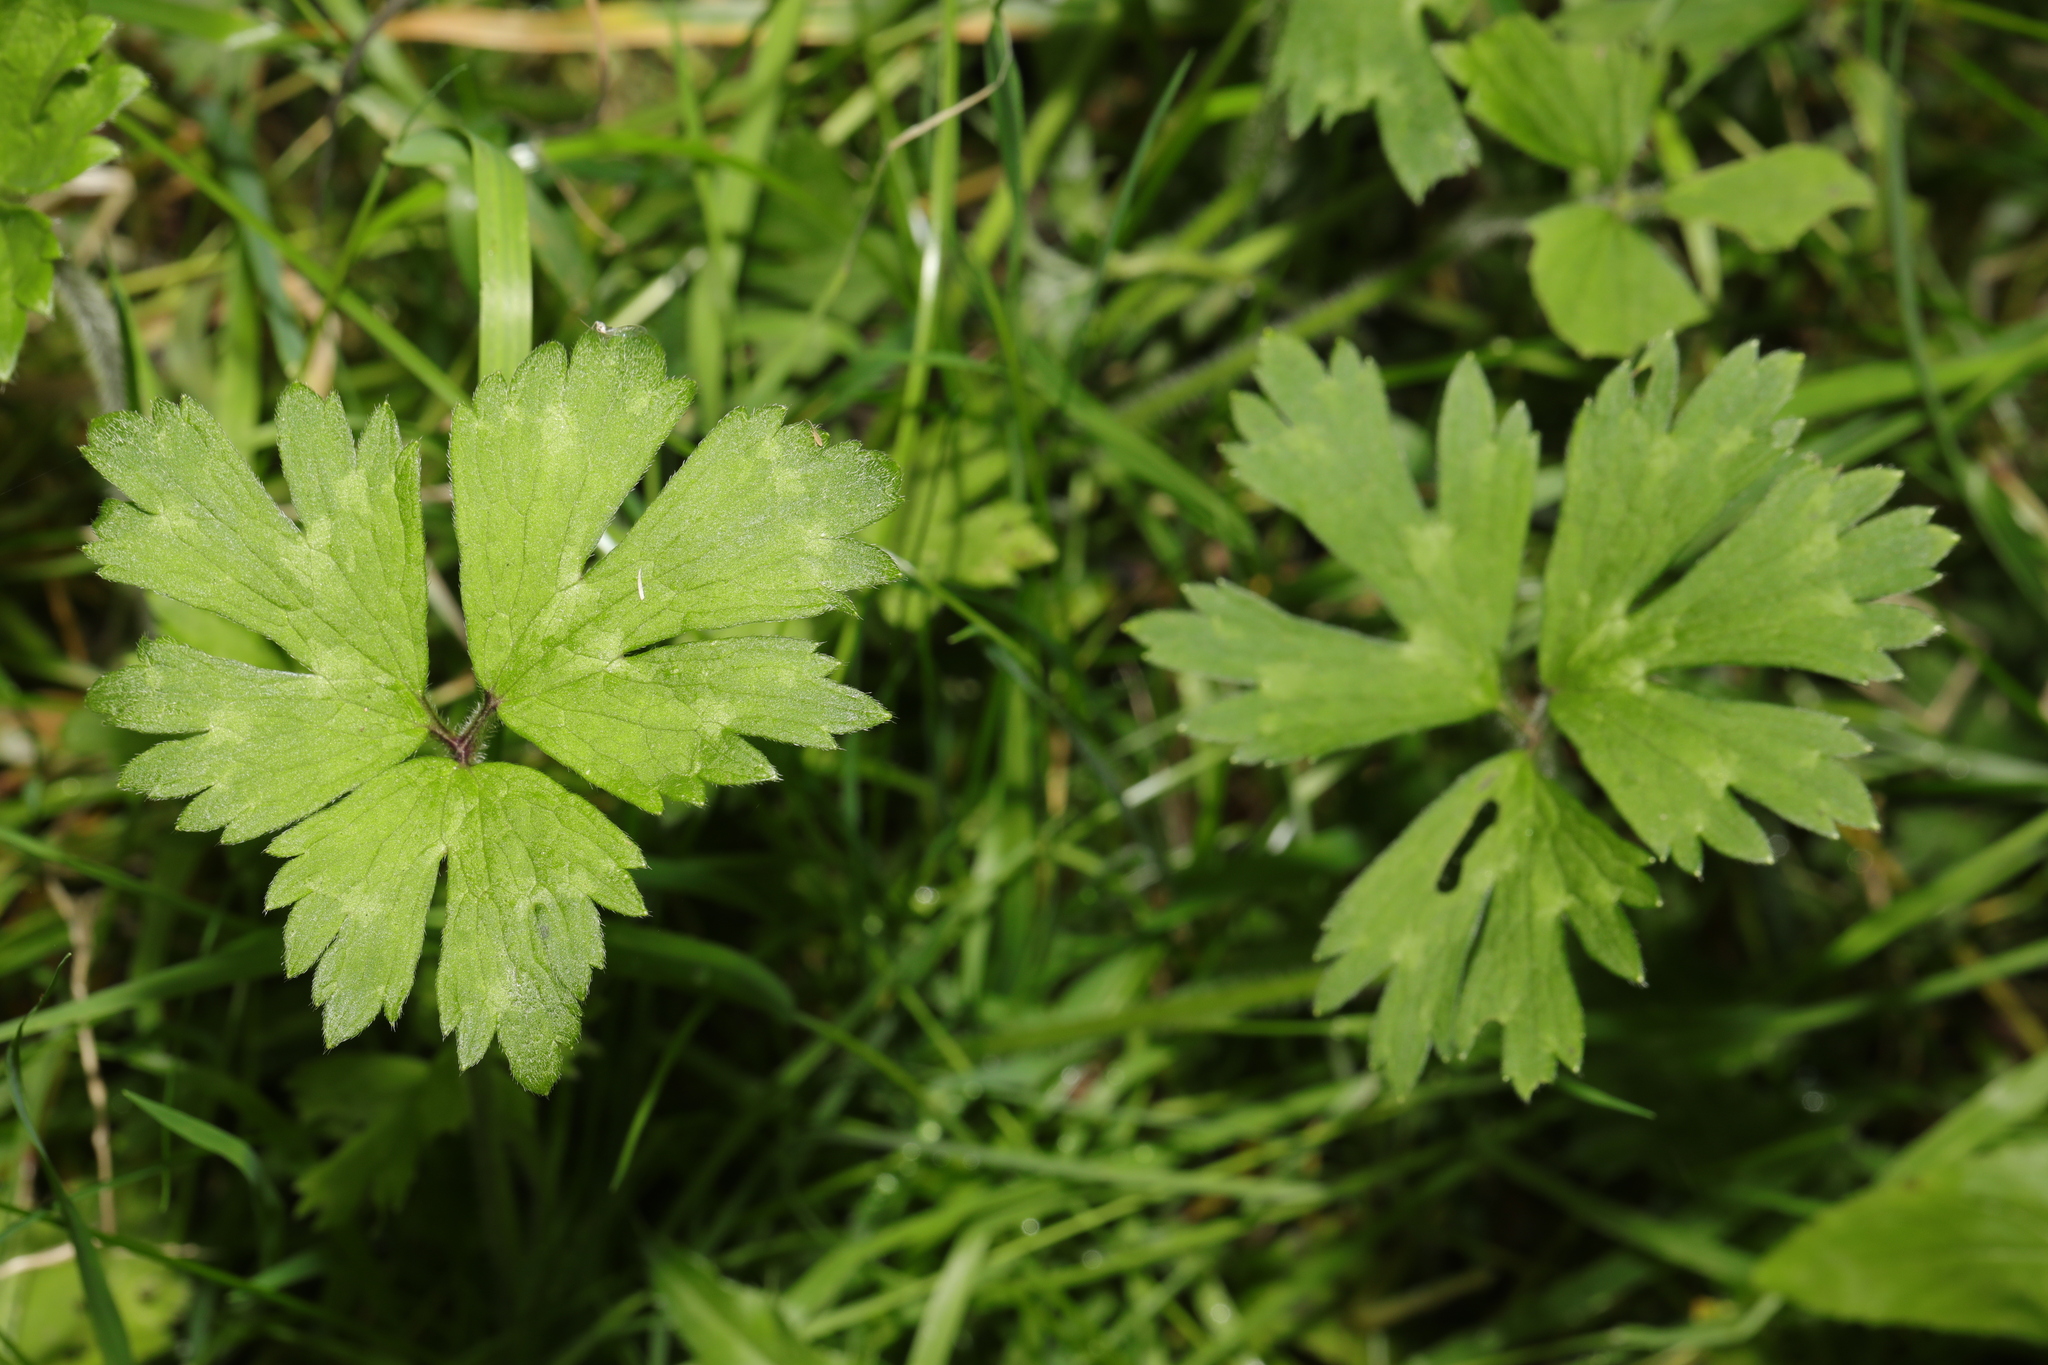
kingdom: Plantae
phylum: Tracheophyta
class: Magnoliopsida
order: Ranunculales
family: Ranunculaceae
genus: Ranunculus
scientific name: Ranunculus repens
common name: Creeping buttercup
